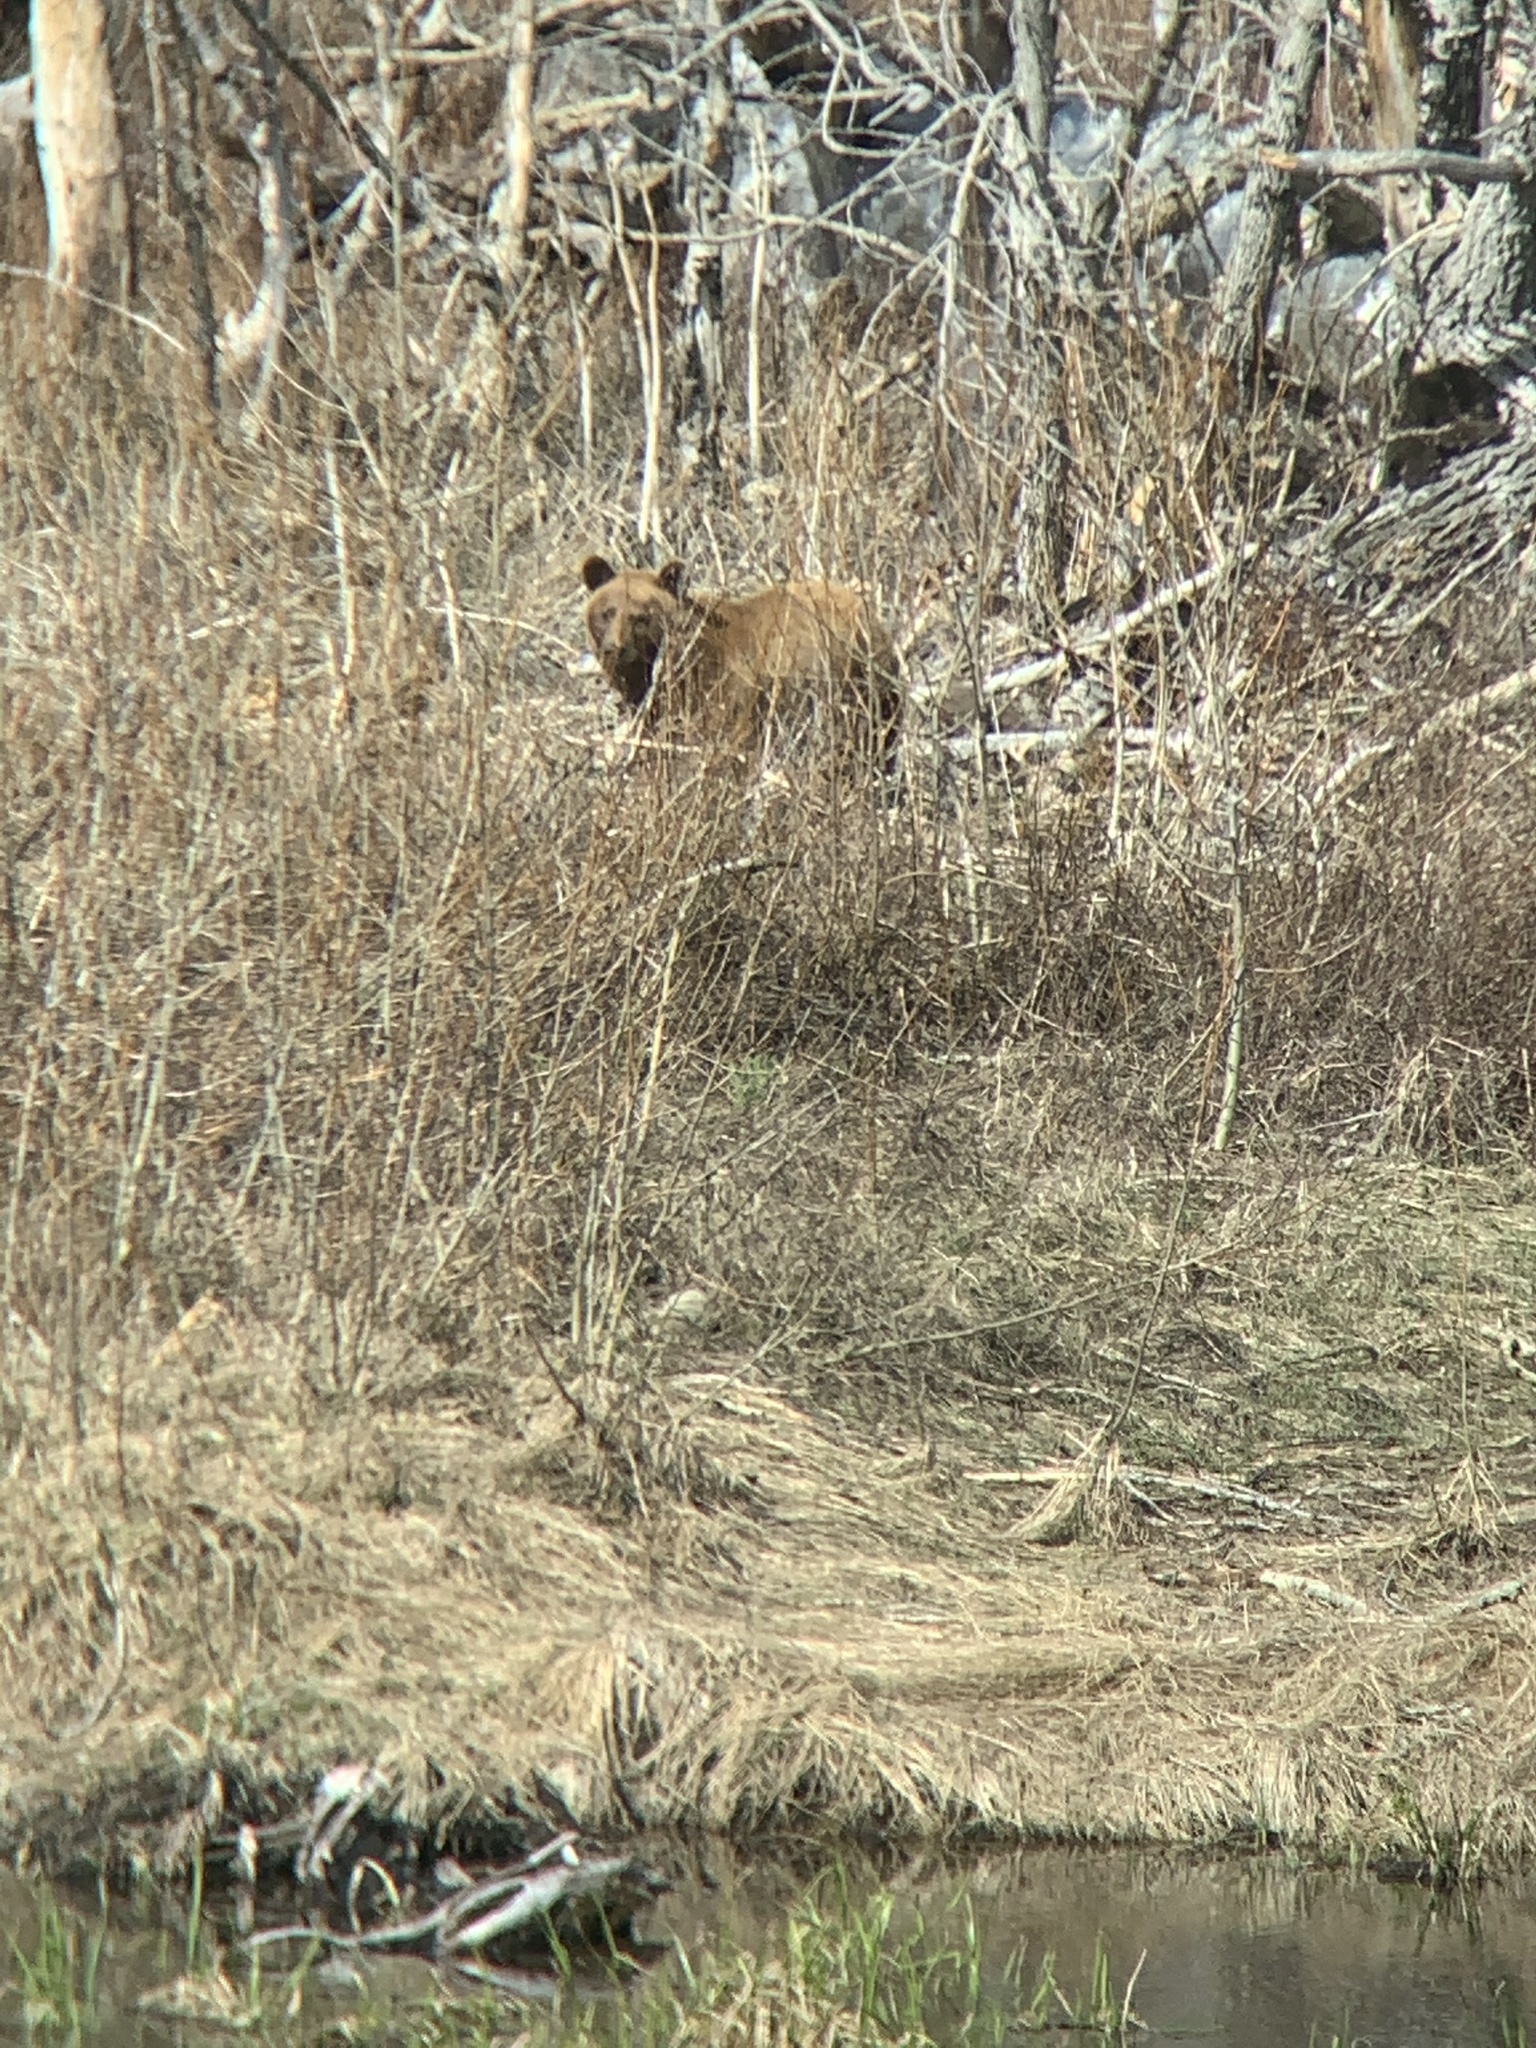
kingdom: Animalia
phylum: Chordata
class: Mammalia
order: Carnivora
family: Ursidae
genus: Ursus
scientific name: Ursus americanus
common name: American black bear
